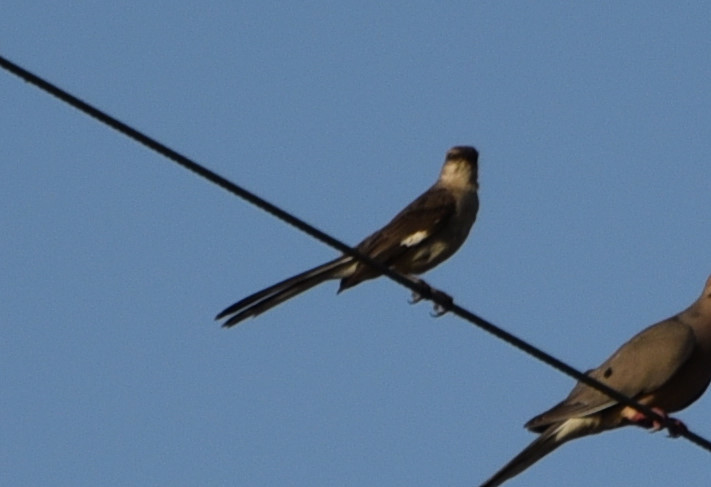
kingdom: Animalia
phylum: Chordata
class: Aves
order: Passeriformes
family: Mimidae
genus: Mimus
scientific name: Mimus polyglottos
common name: Northern mockingbird
